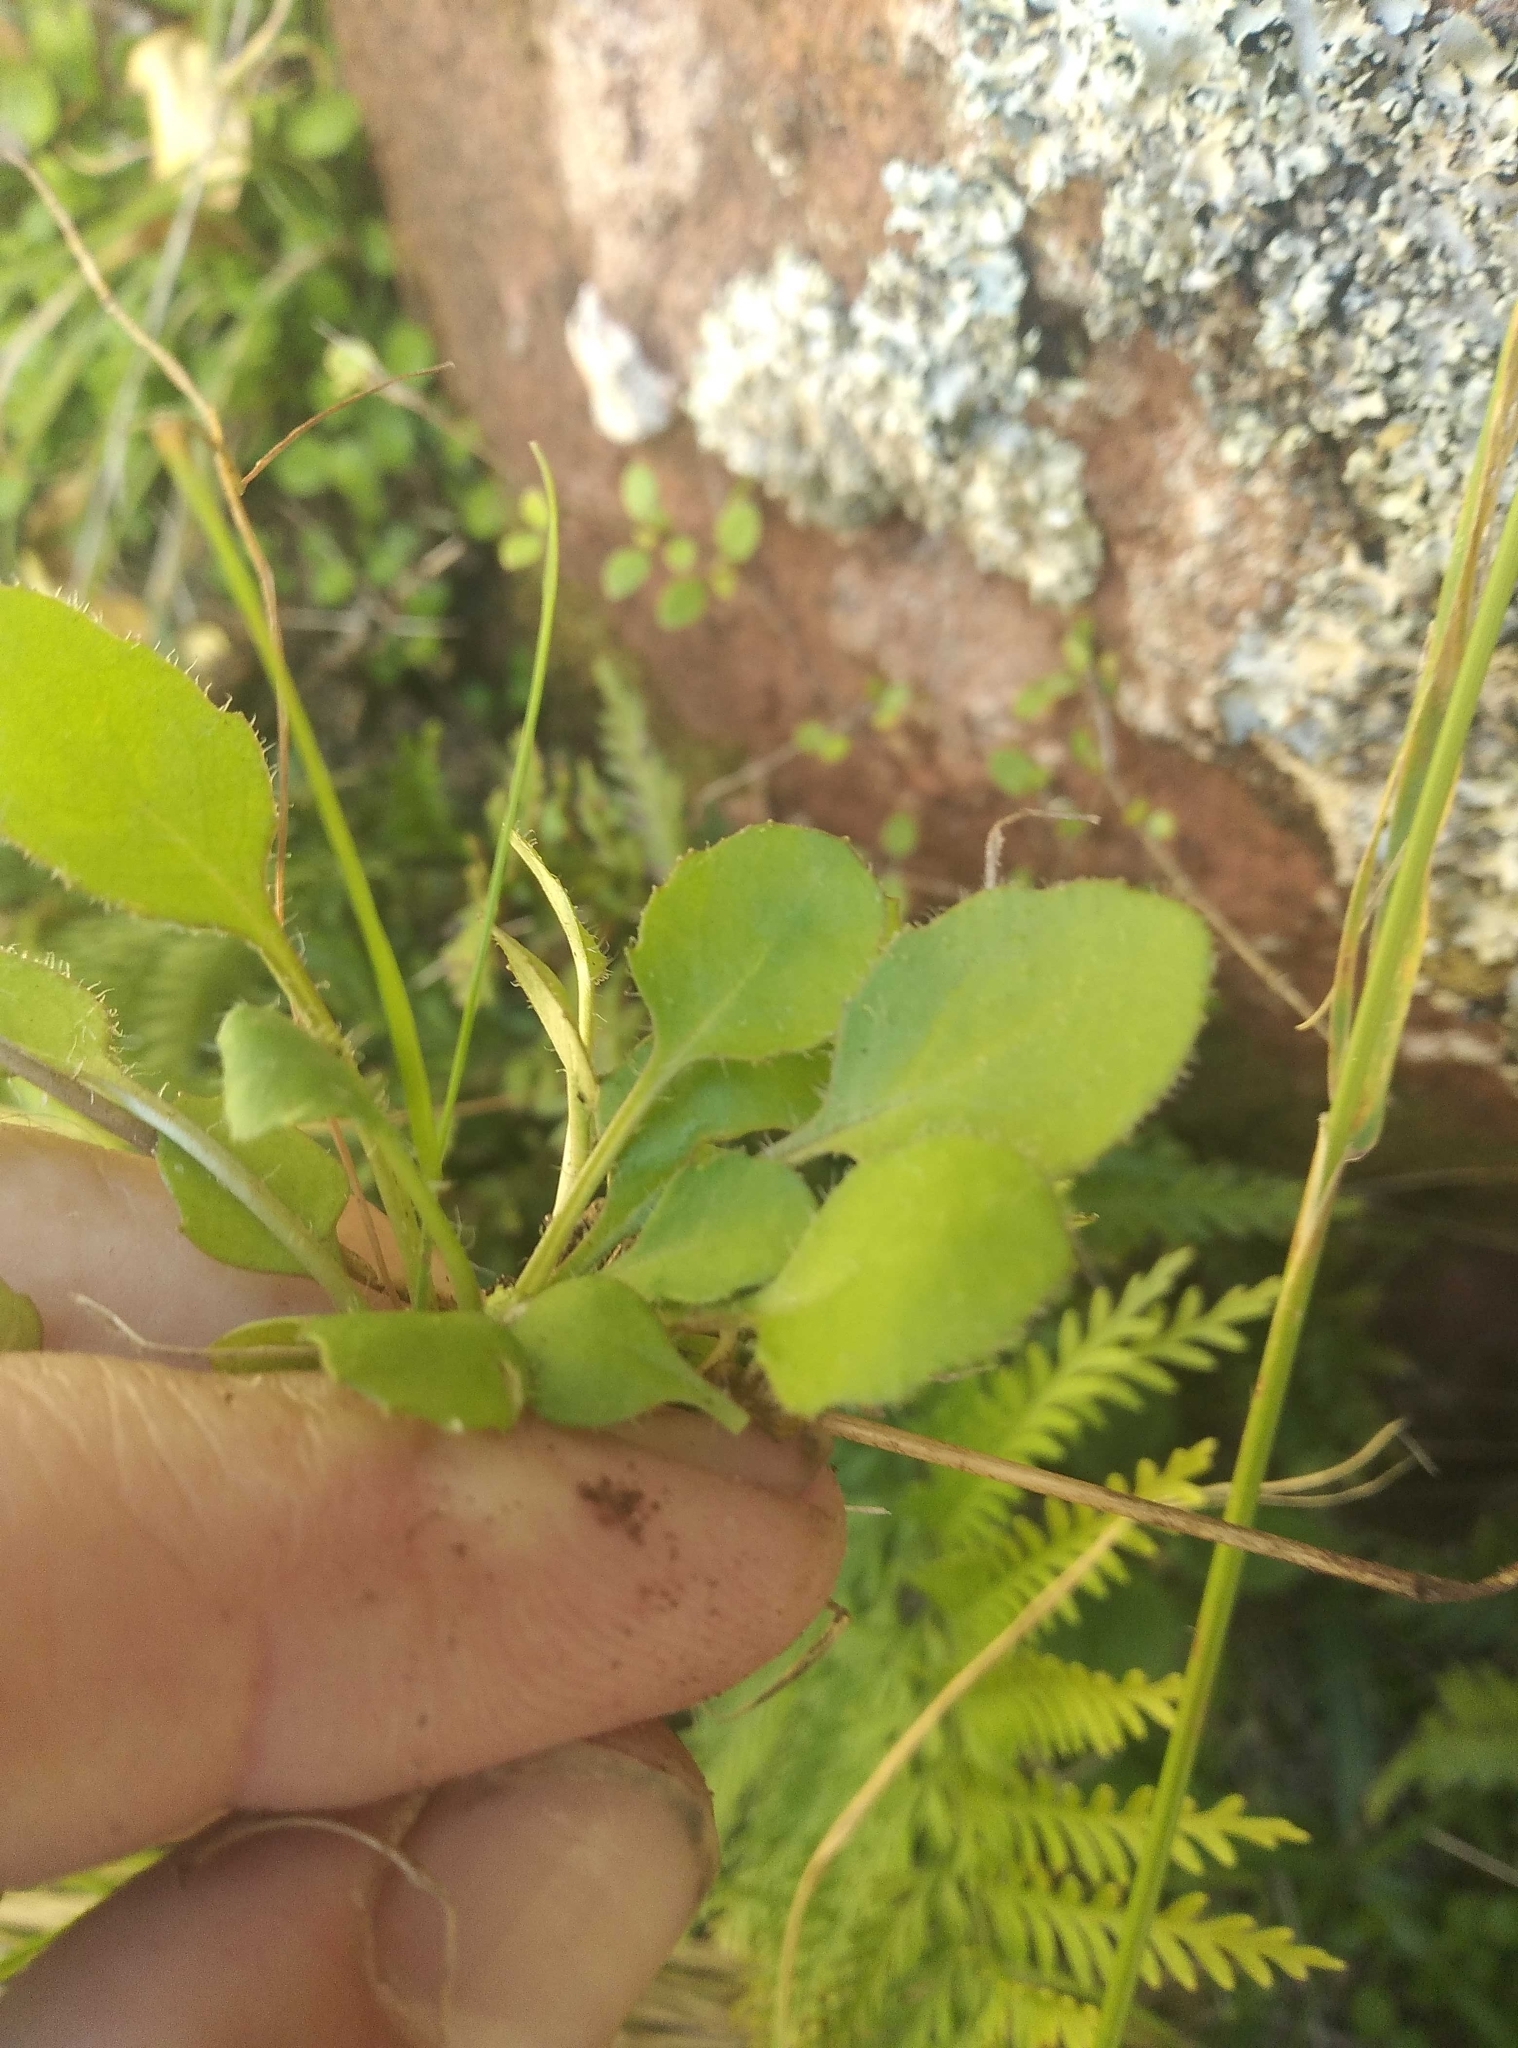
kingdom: Plantae
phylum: Tracheophyta
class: Magnoliopsida
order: Asterales
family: Asteraceae
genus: Lagenophora
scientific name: Lagenophora pumila
